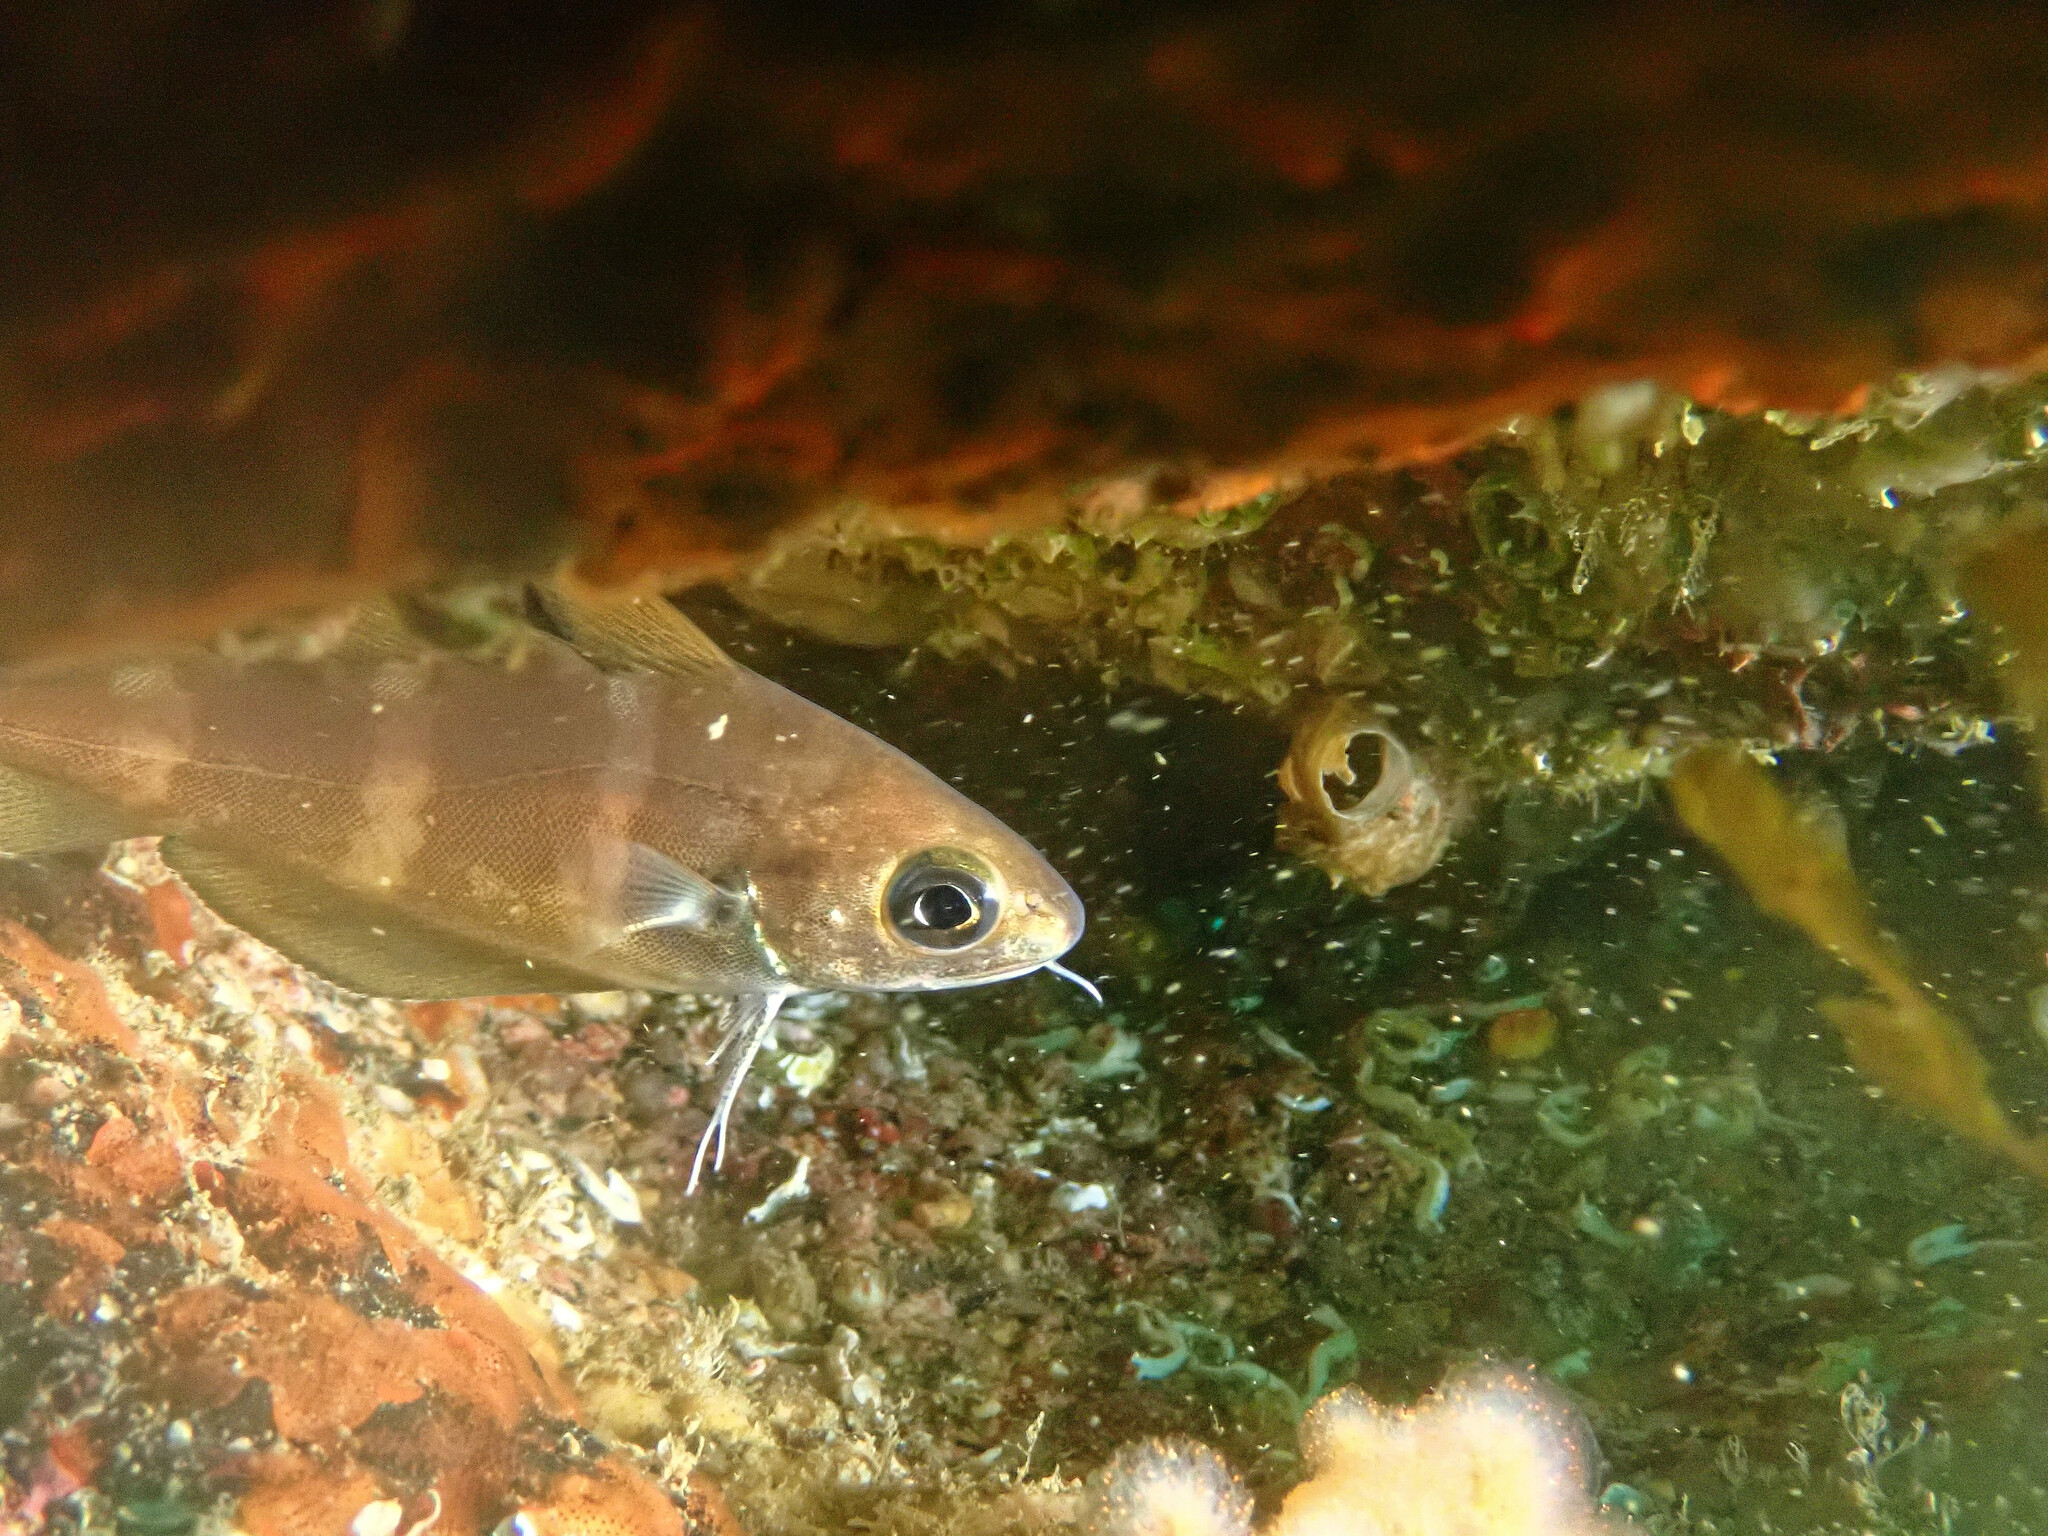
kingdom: Animalia
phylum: Chordata
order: Gadiformes
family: Gadidae
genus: Trisopterus
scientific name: Trisopterus luscus
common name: Bib
